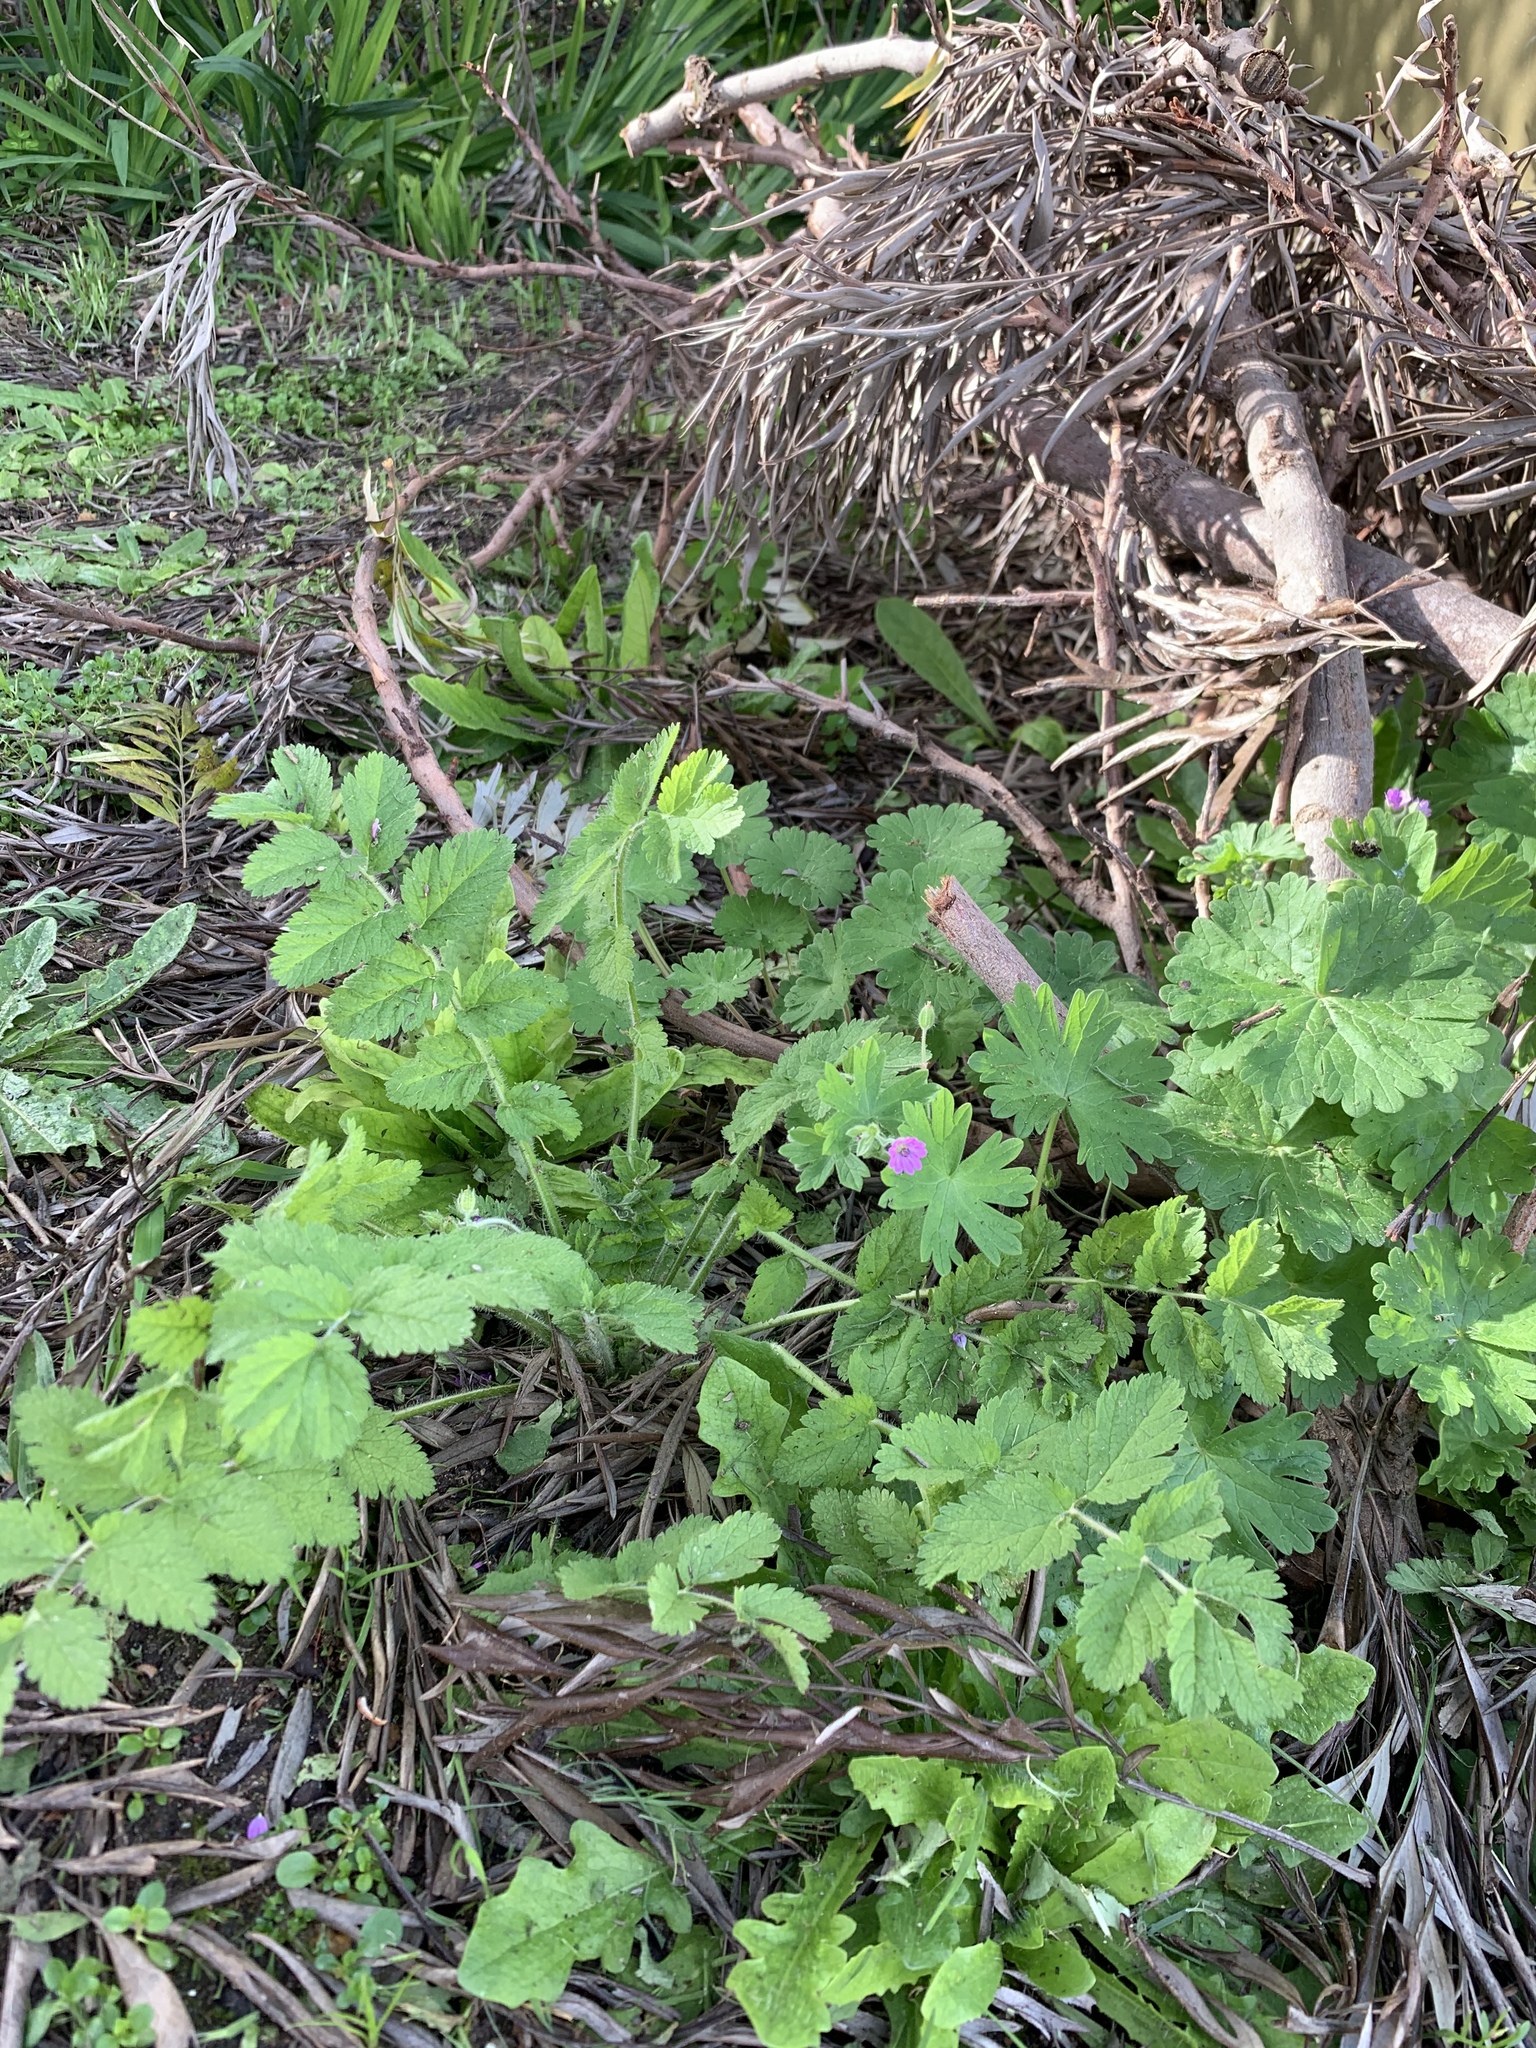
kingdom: Plantae
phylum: Tracheophyta
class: Magnoliopsida
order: Geraniales
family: Geraniaceae
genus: Geranium
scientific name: Geranium molle
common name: Dove's-foot crane's-bill
